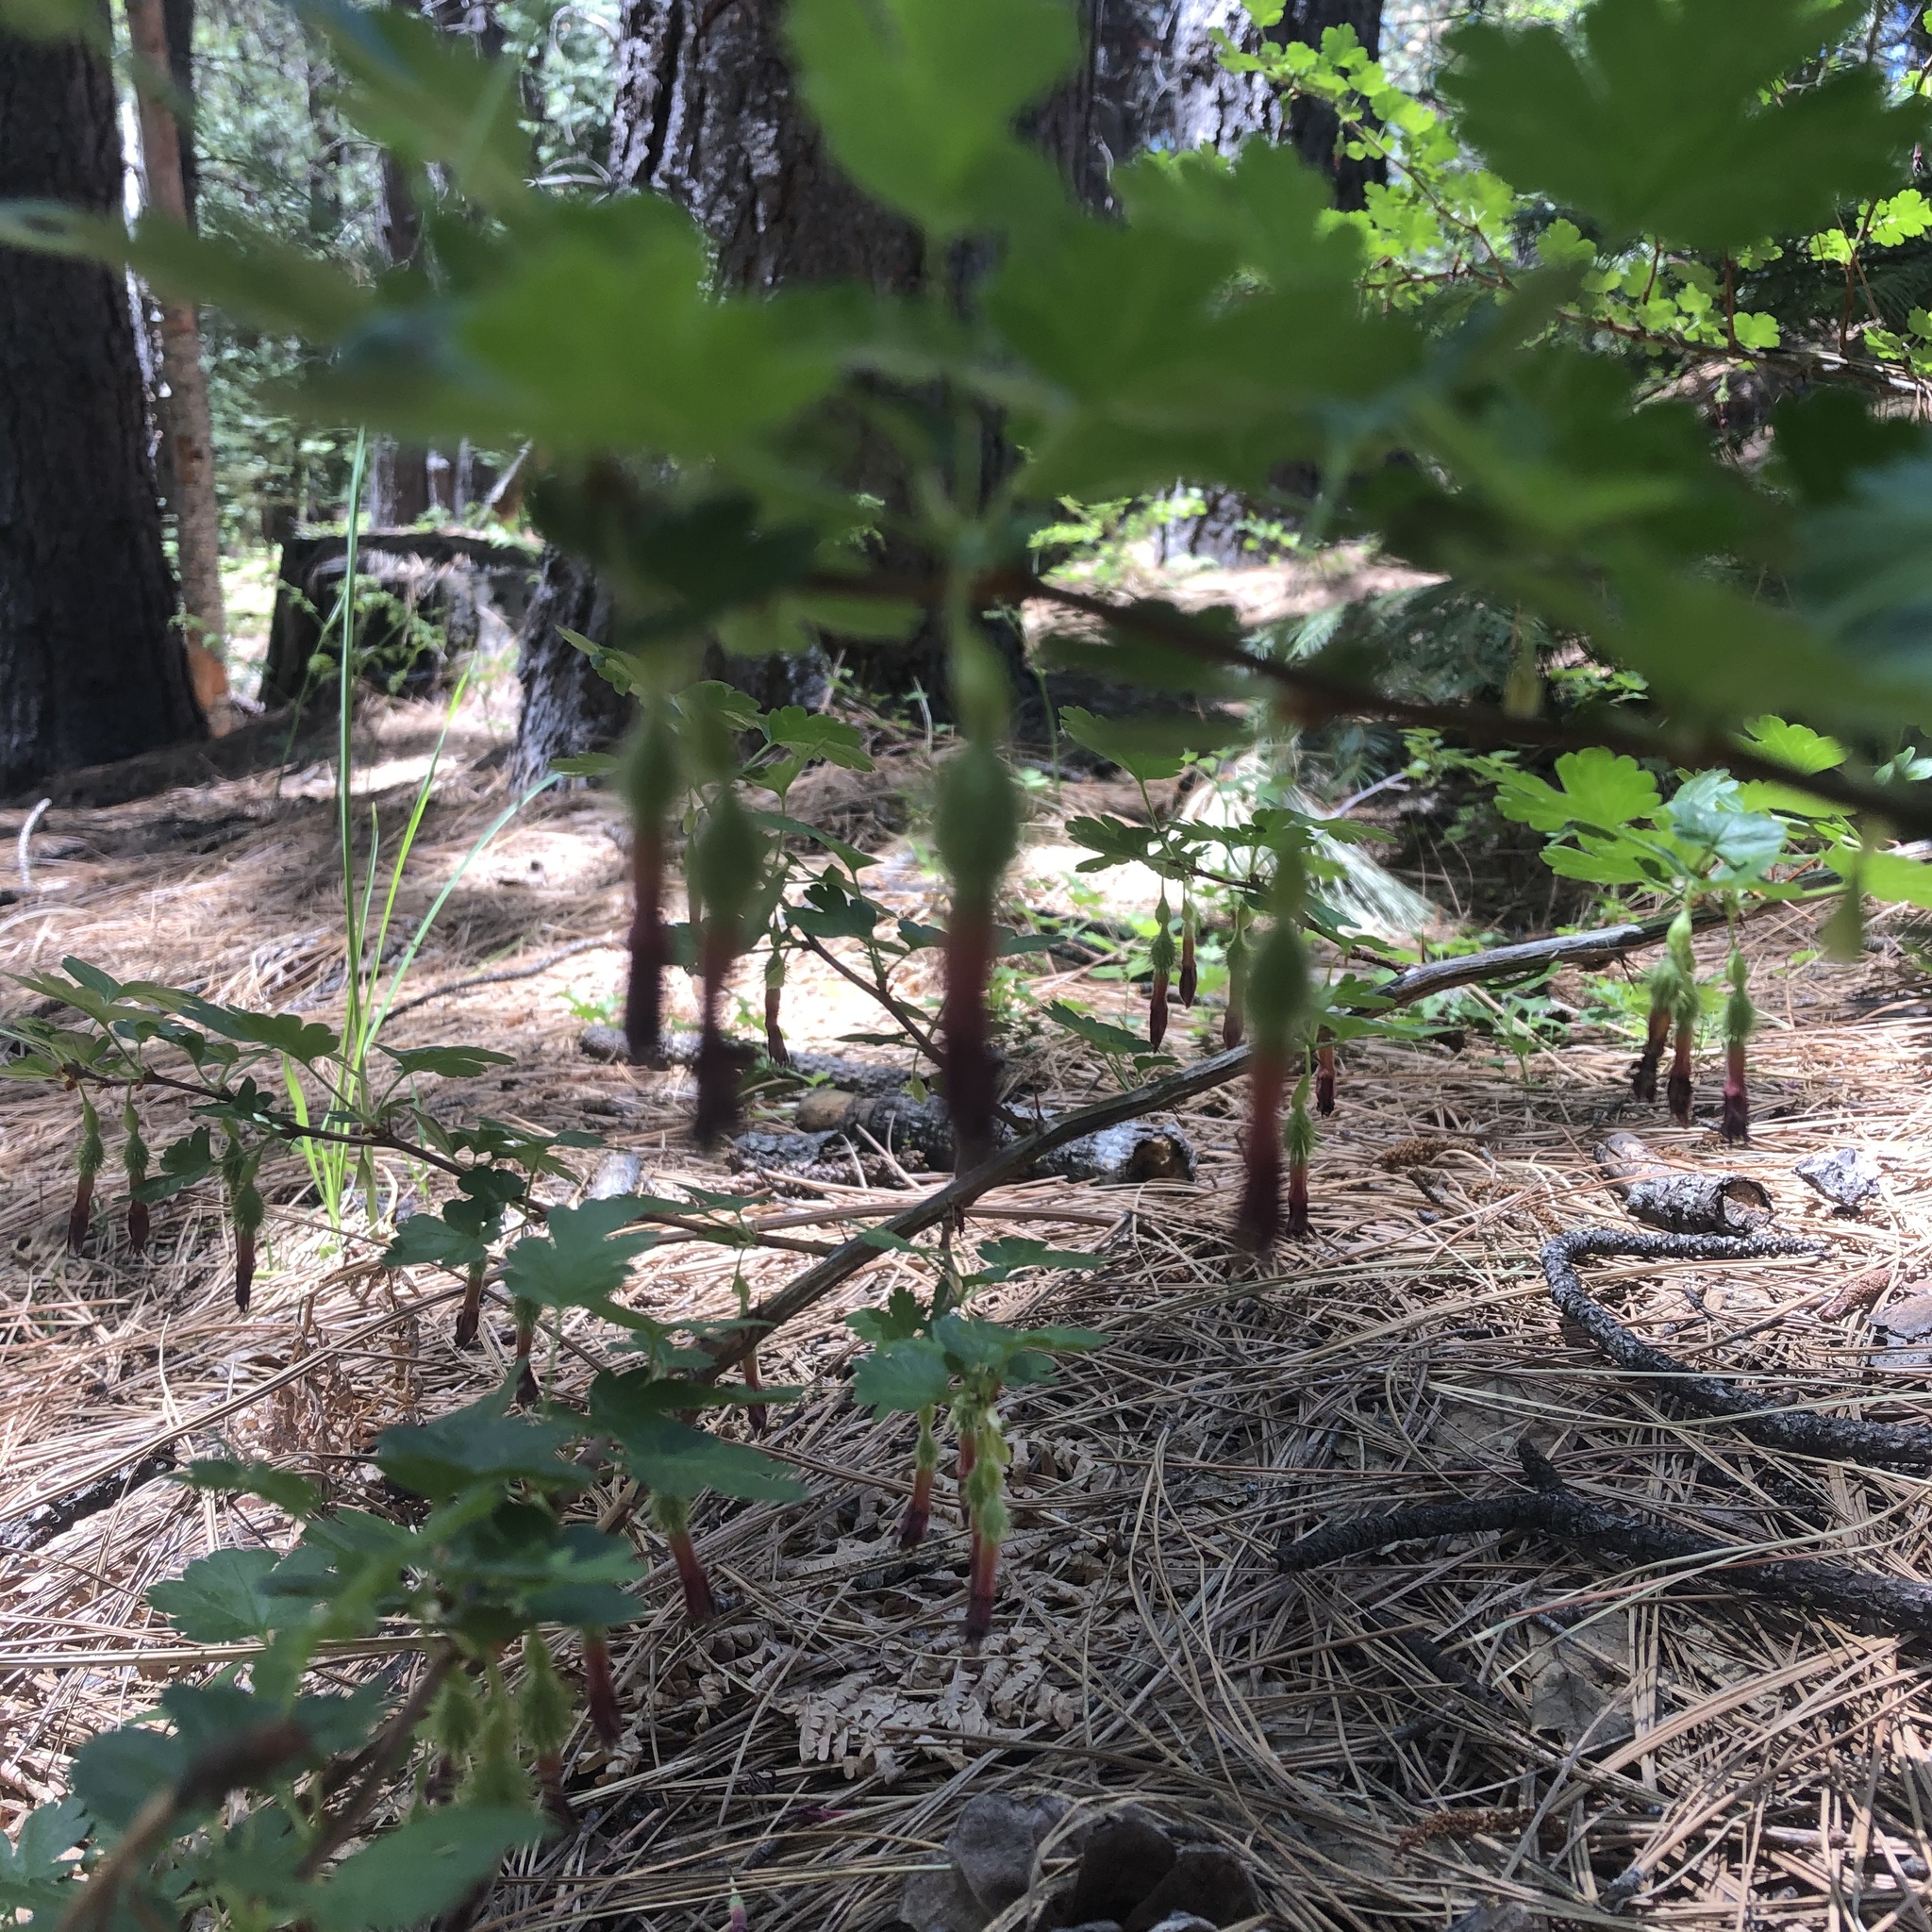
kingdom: Plantae
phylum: Tracheophyta
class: Magnoliopsida
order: Saxifragales
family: Grossulariaceae
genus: Ribes
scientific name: Ribes roezlii
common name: Sierra gooseberry
